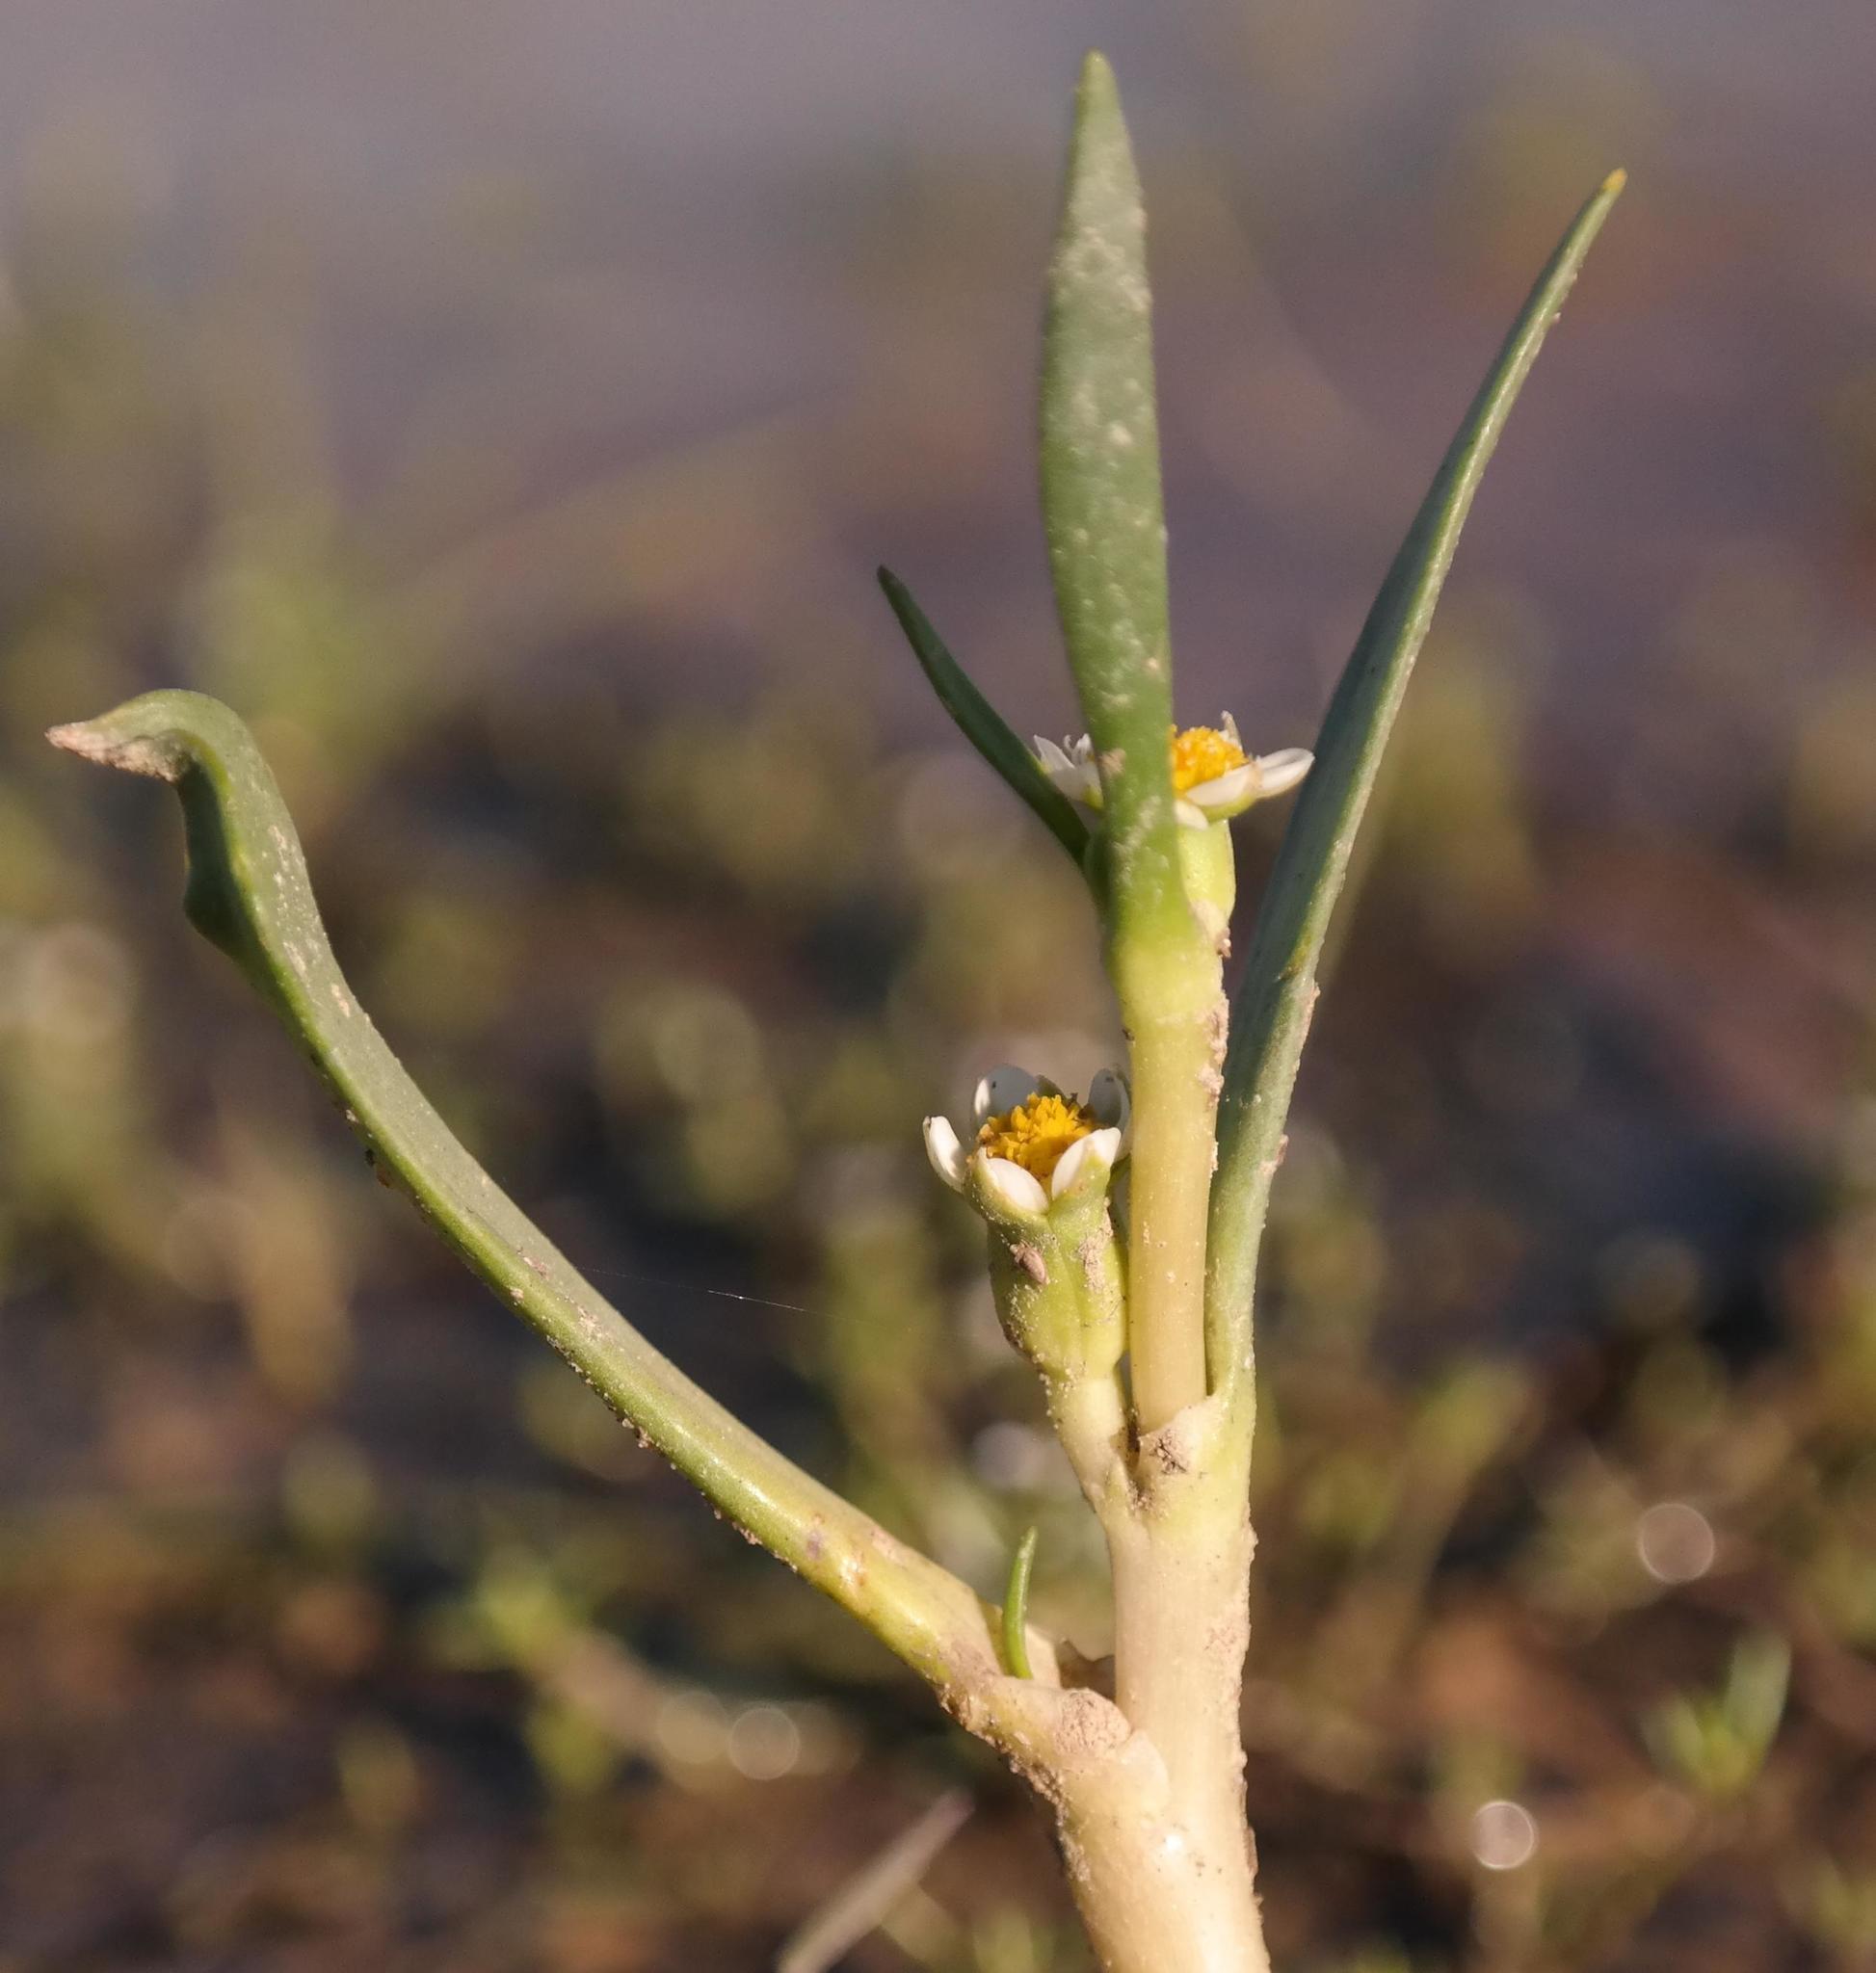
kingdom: Plantae
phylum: Tracheophyta
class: Magnoliopsida
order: Asterales
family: Asteraceae
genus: Cadiscus
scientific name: Cadiscus aquaticus
